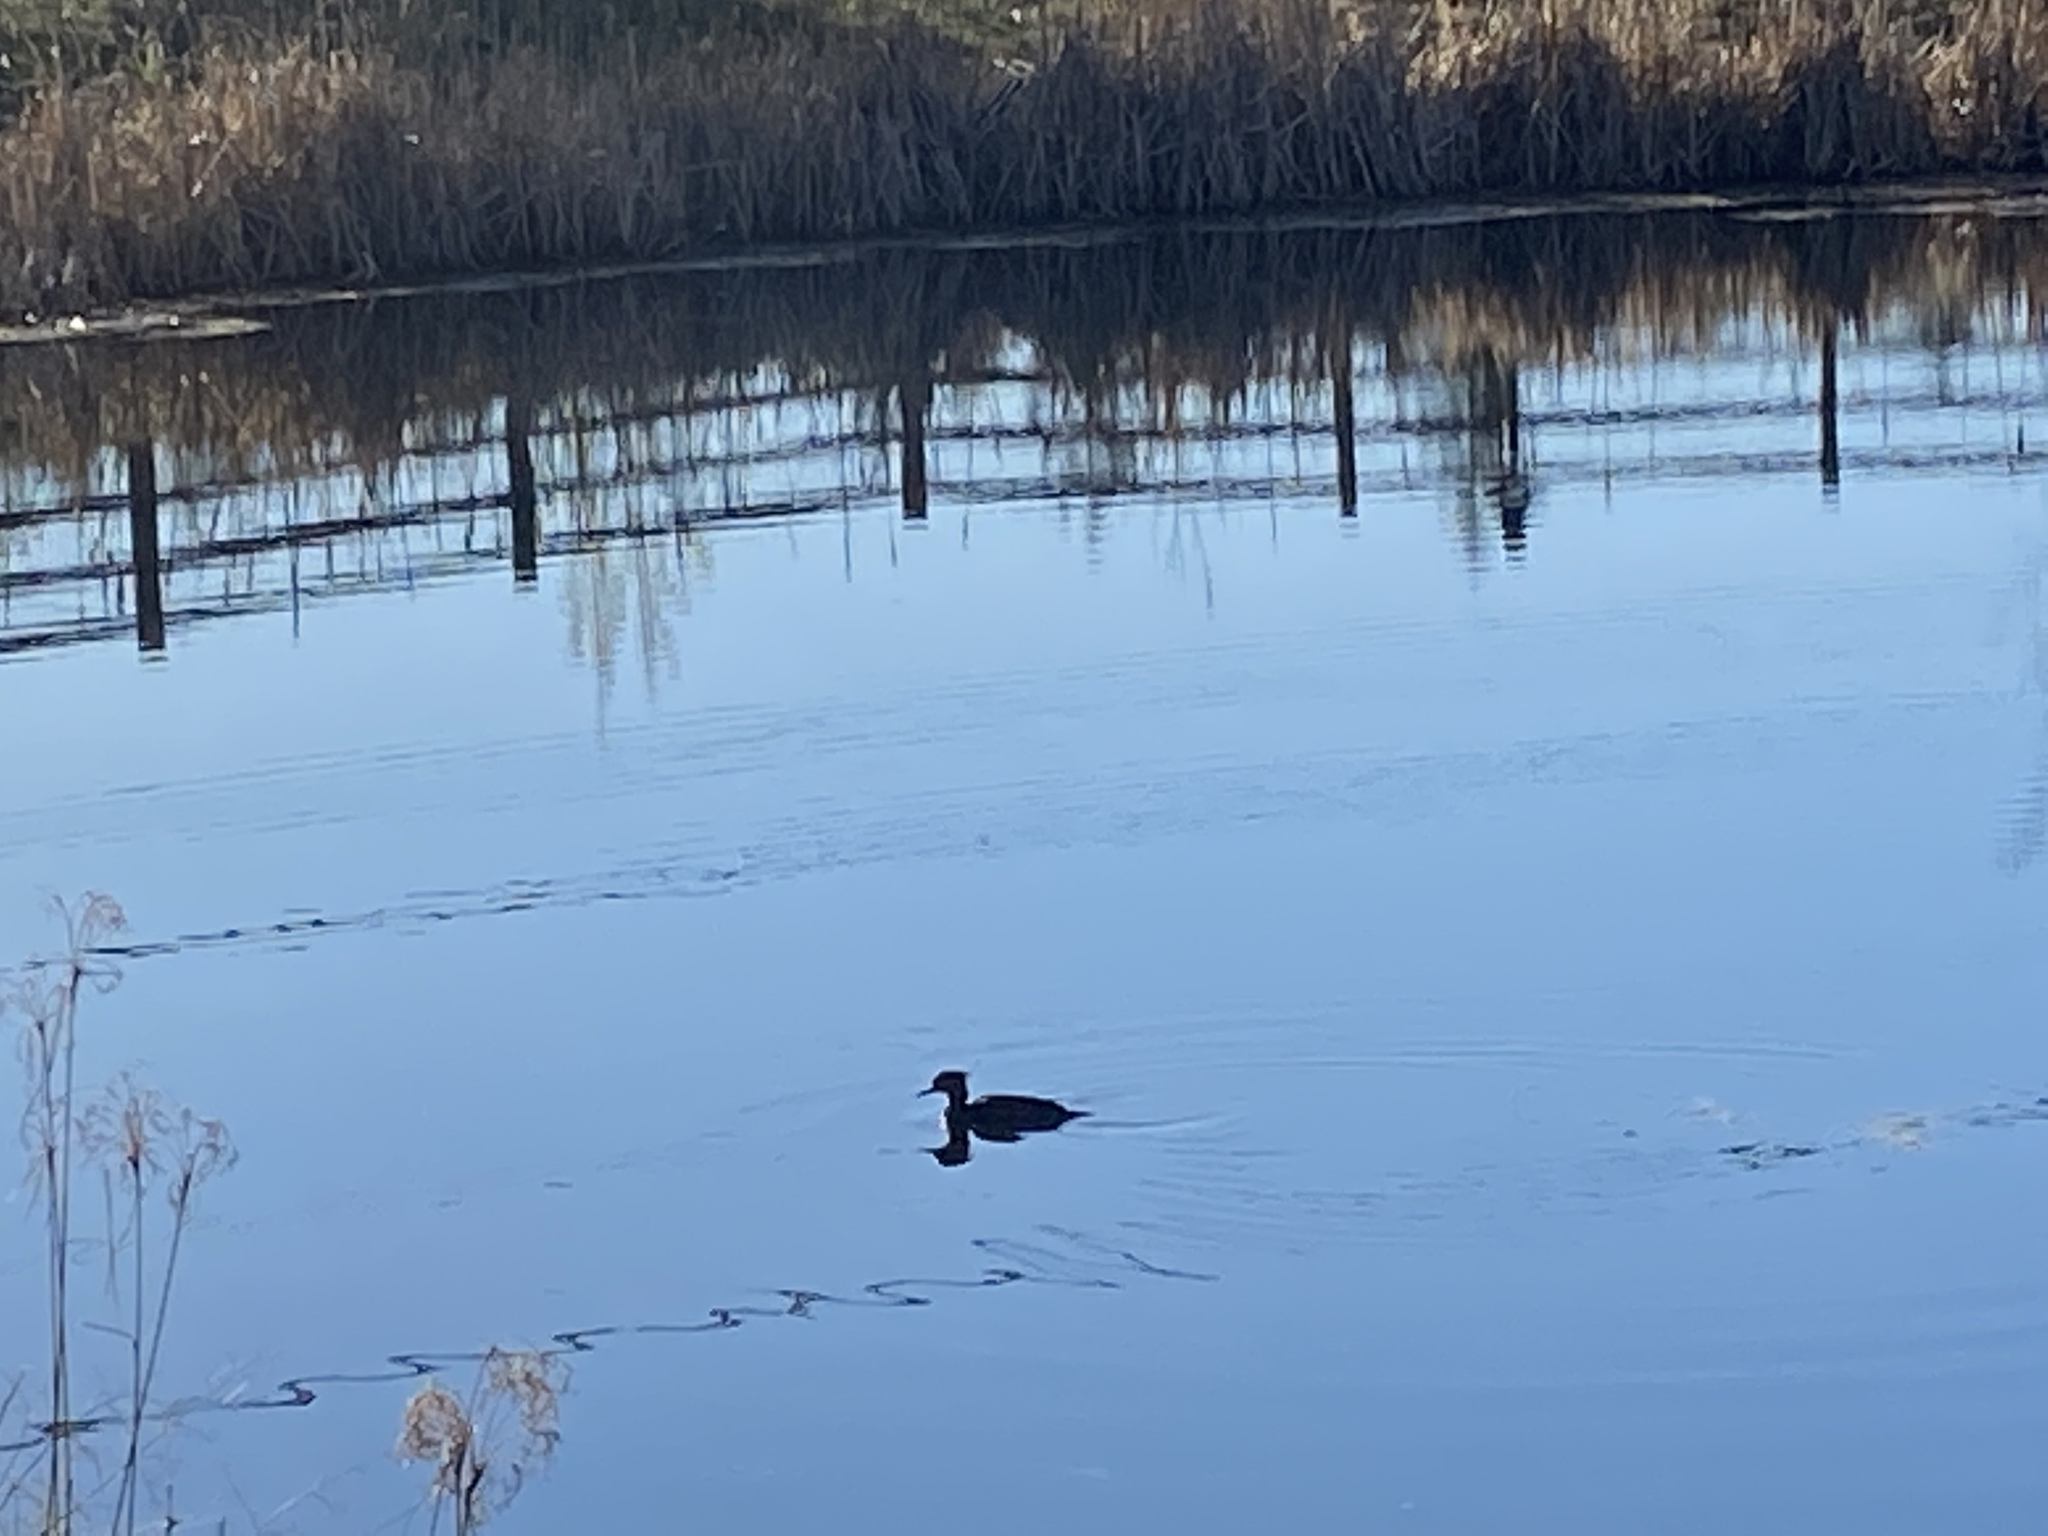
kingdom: Animalia
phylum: Chordata
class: Aves
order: Anseriformes
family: Anatidae
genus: Mergus
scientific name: Mergus merganser
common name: Common merganser
